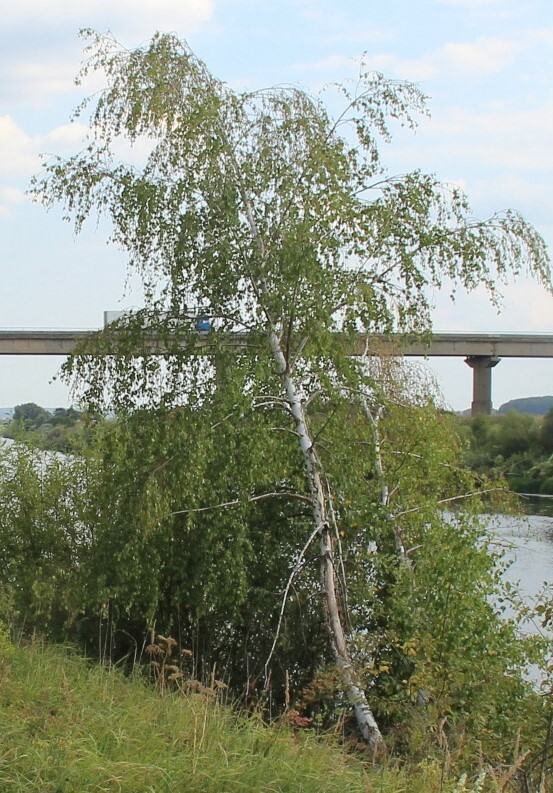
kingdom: Plantae
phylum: Tracheophyta
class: Magnoliopsida
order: Fagales
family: Betulaceae
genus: Betula
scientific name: Betula pendula
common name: Silver birch
